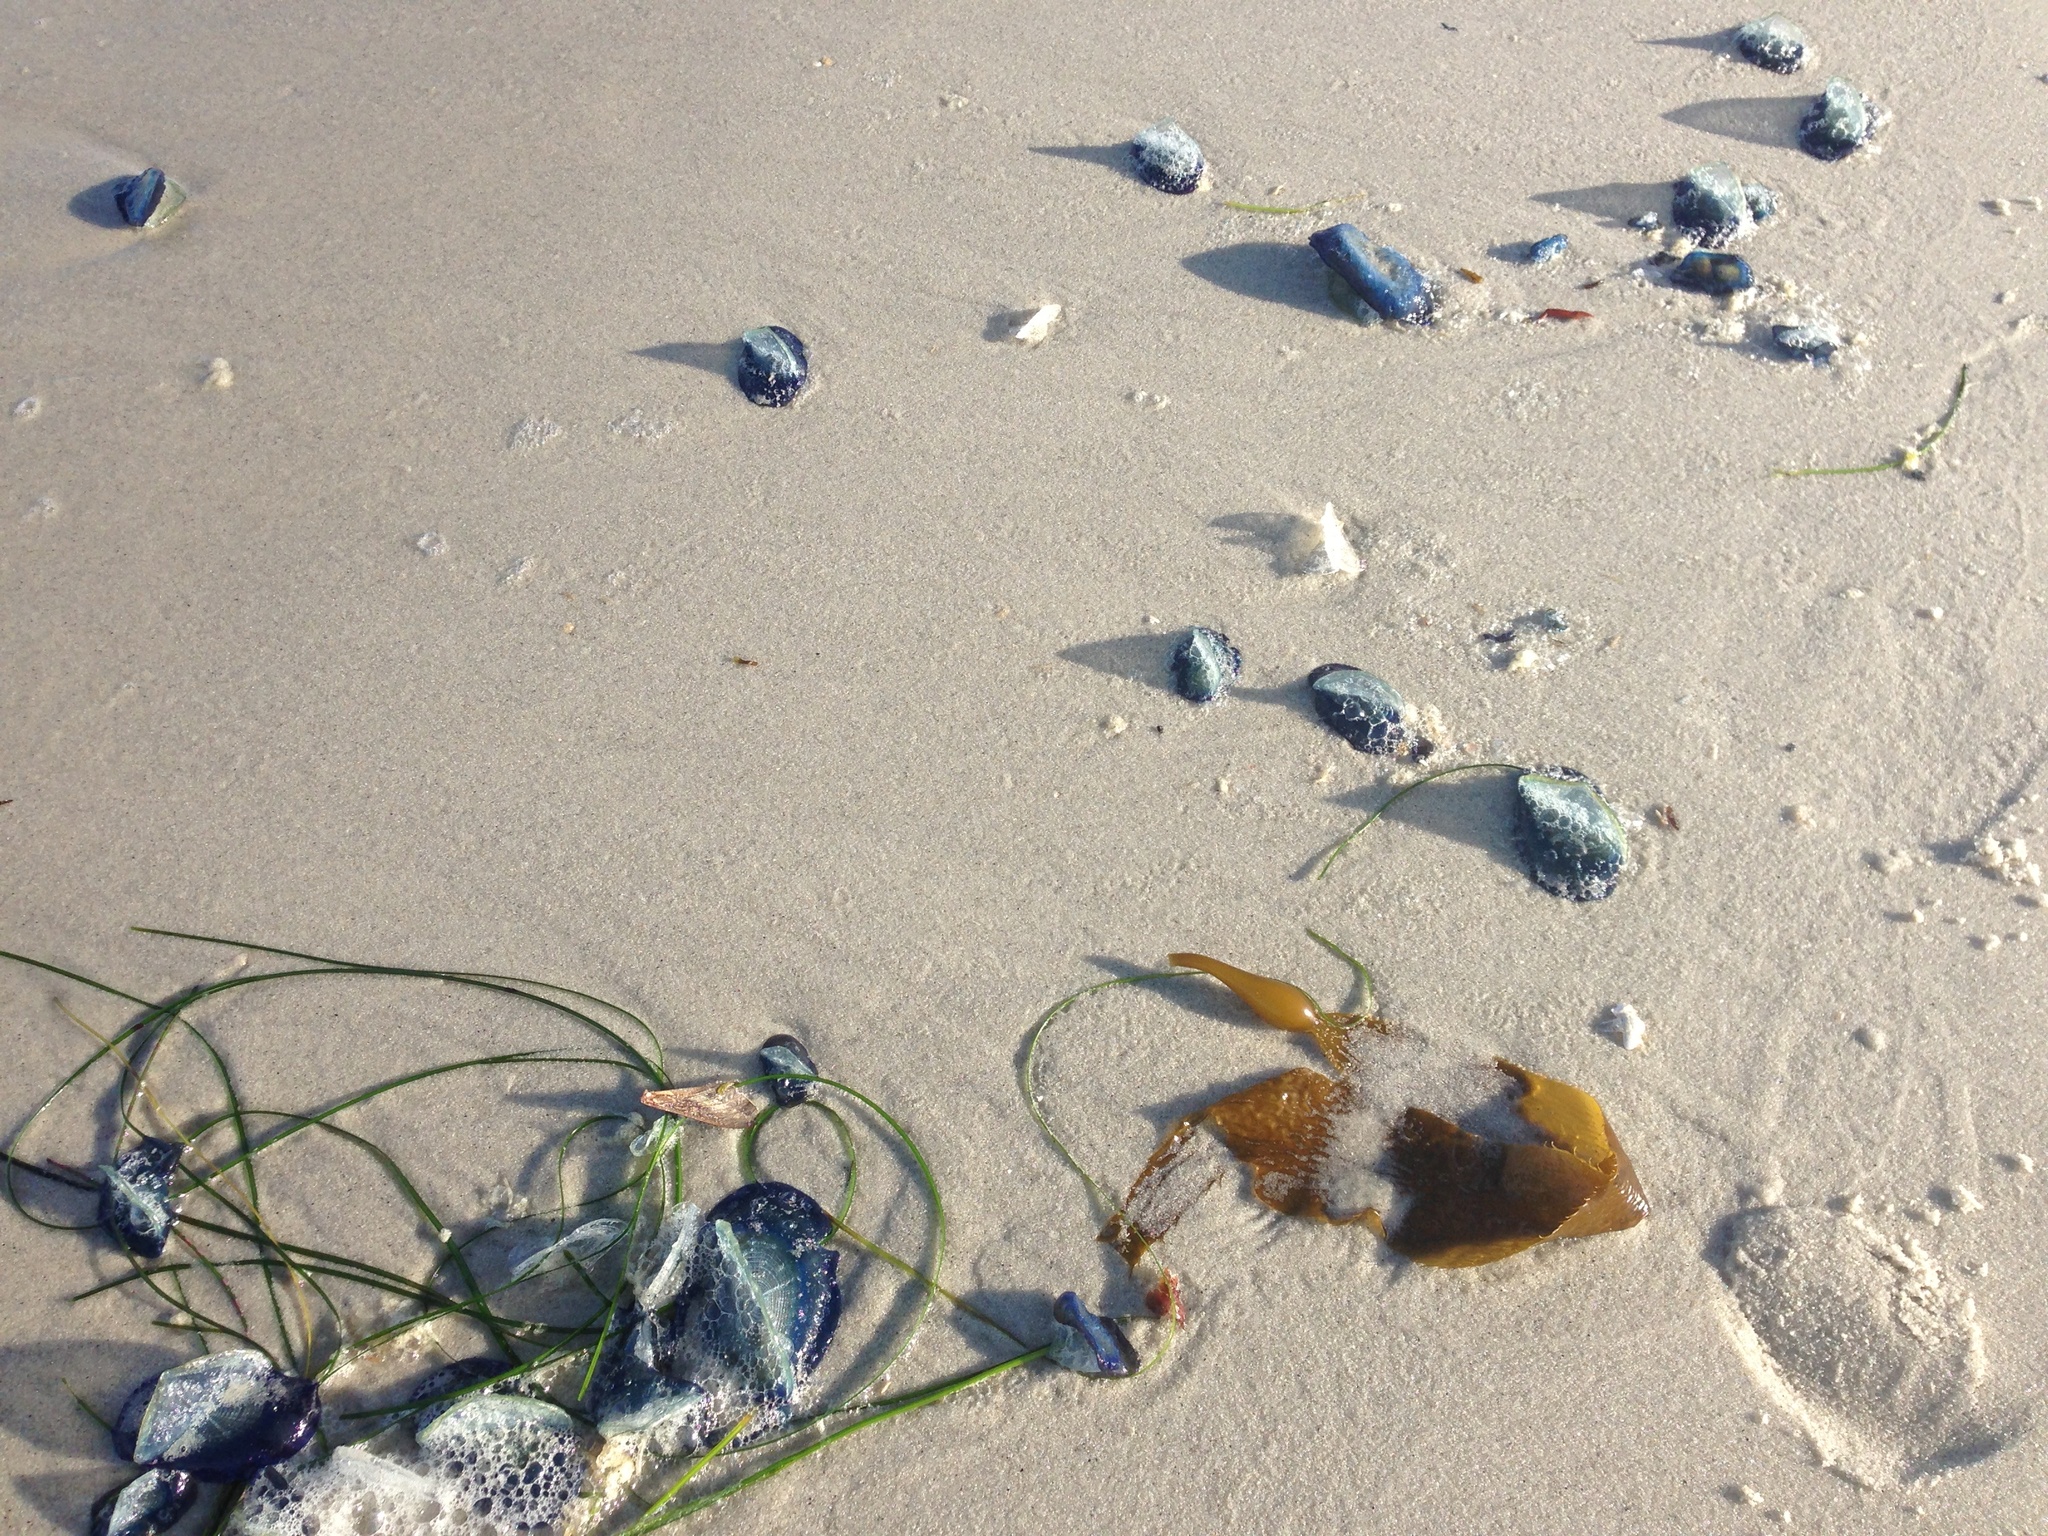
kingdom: Animalia
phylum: Cnidaria
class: Hydrozoa
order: Anthoathecata
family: Porpitidae
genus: Velella
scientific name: Velella velella
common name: By-the-wind-sailor
